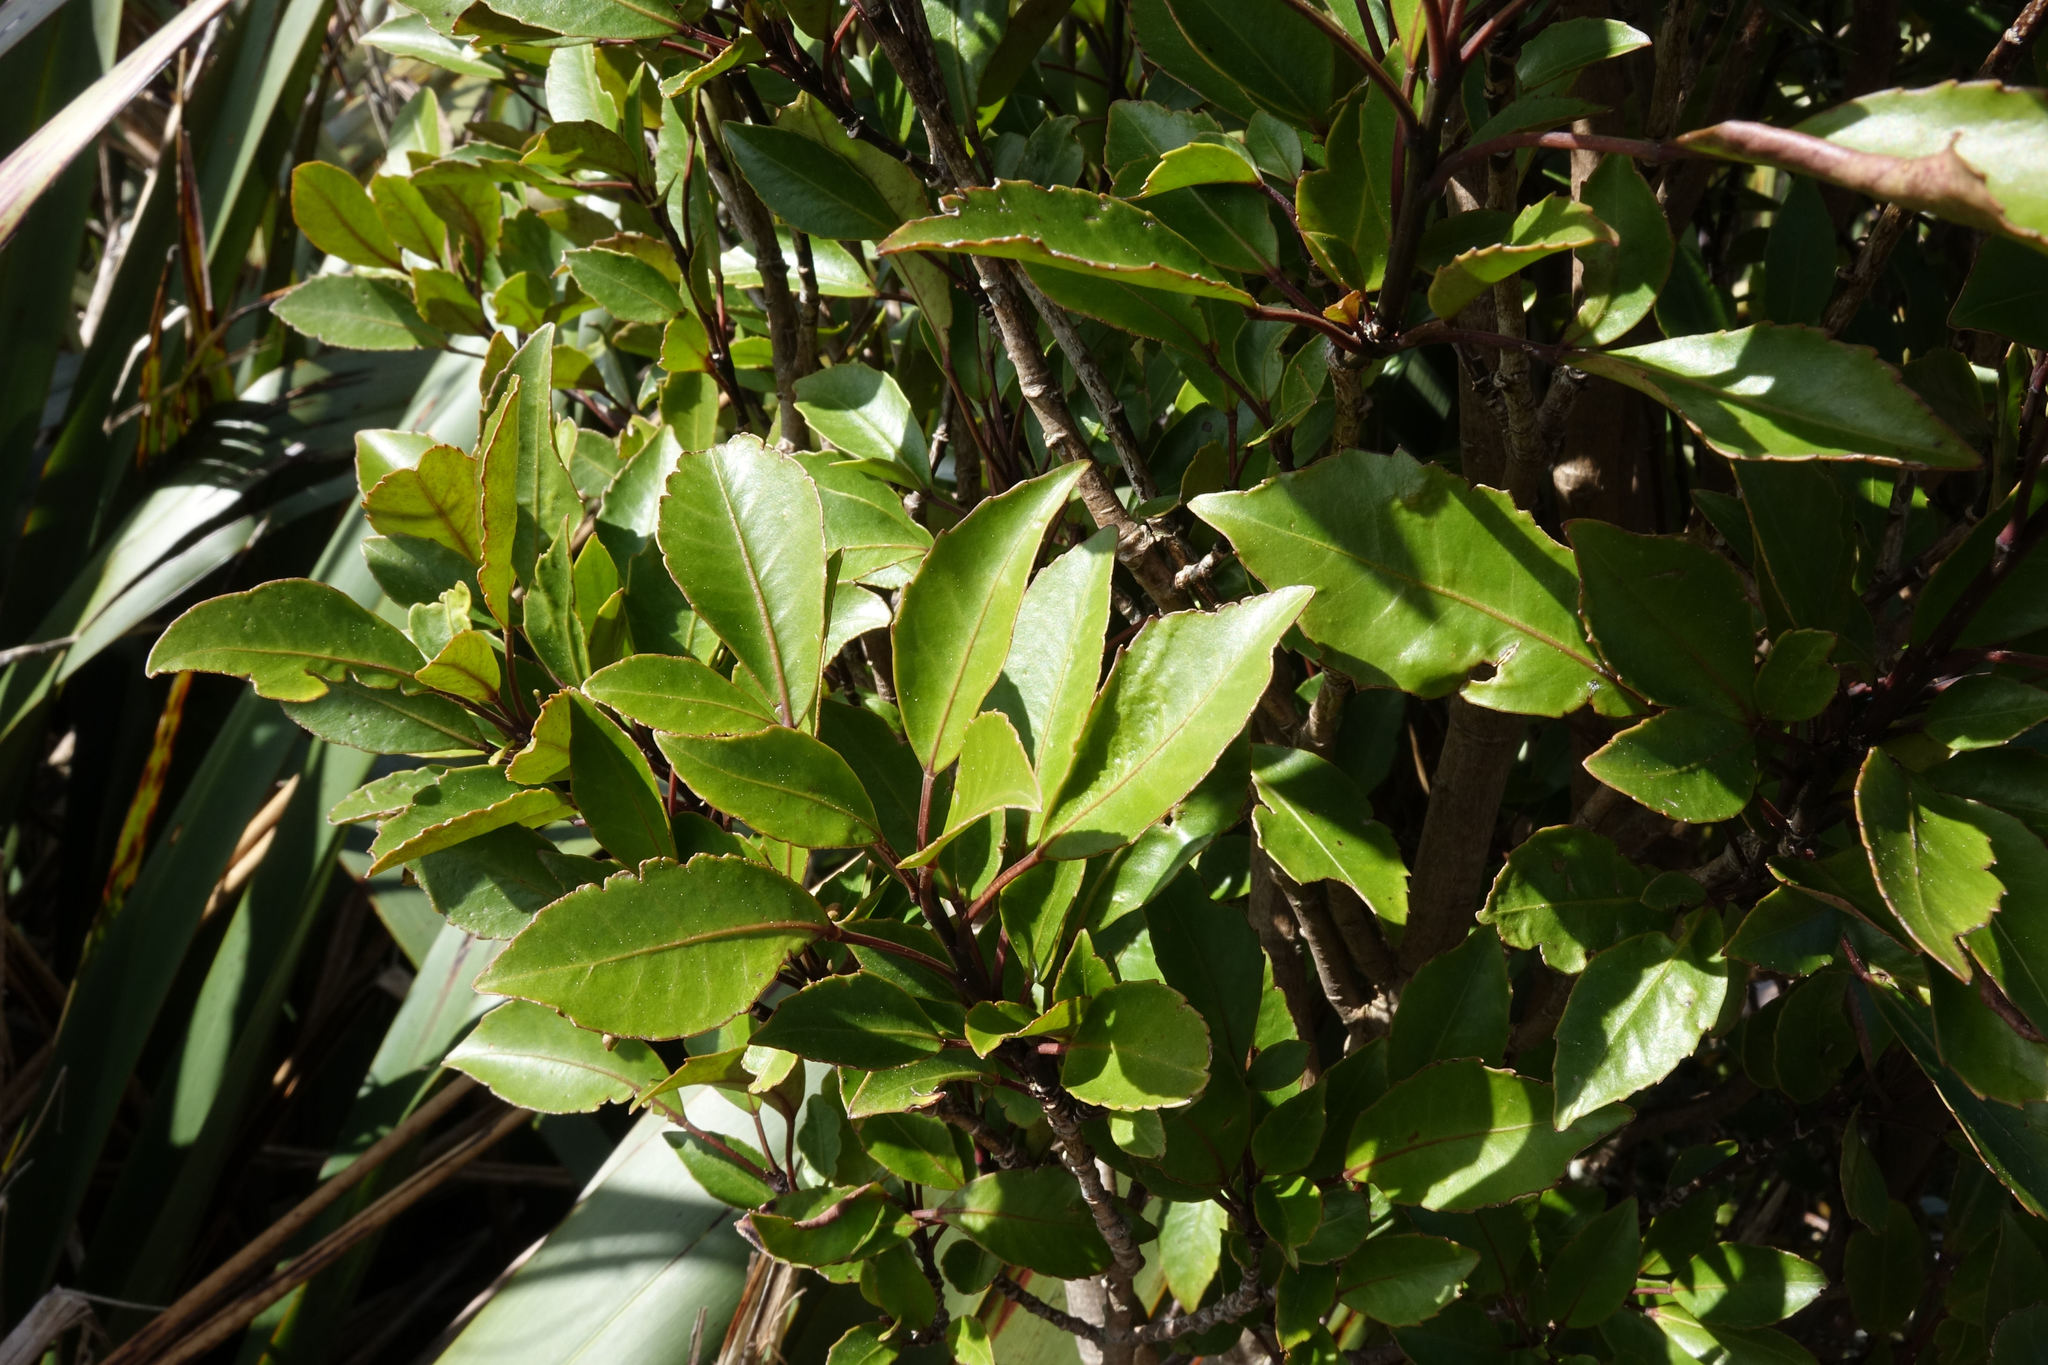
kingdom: Plantae
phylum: Tracheophyta
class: Magnoliopsida
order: Apiales
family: Araliaceae
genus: Raukaua
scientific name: Raukaua simplex
